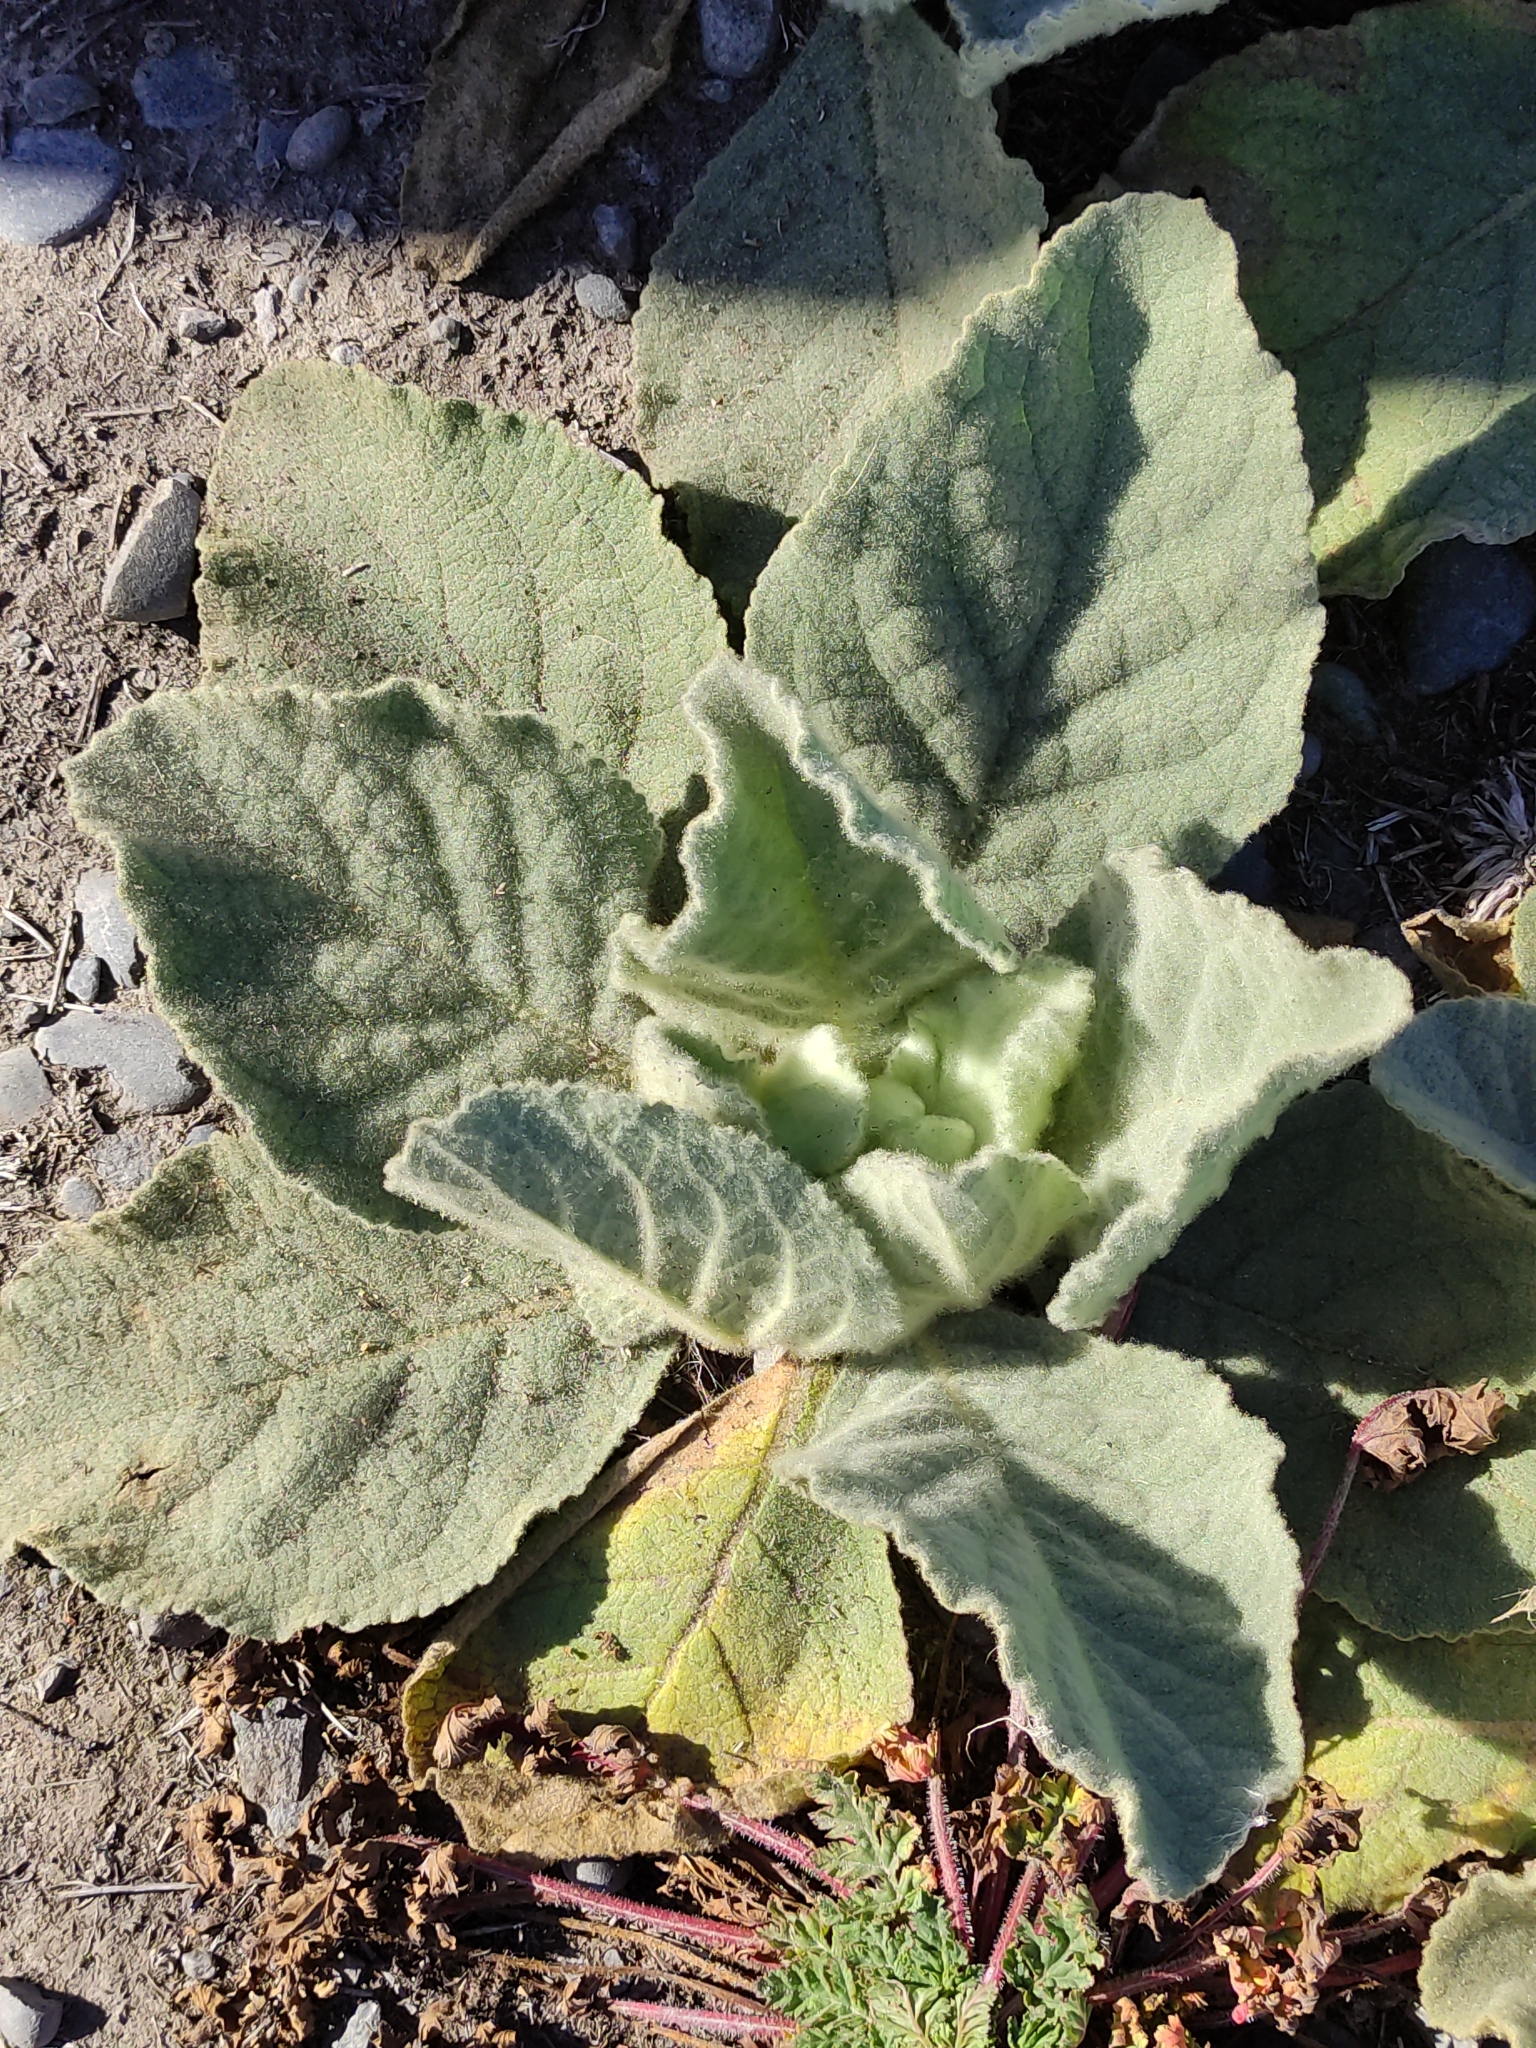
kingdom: Plantae
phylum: Tracheophyta
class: Magnoliopsida
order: Lamiales
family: Scrophulariaceae
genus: Verbascum
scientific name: Verbascum thapsus
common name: Common mullein
